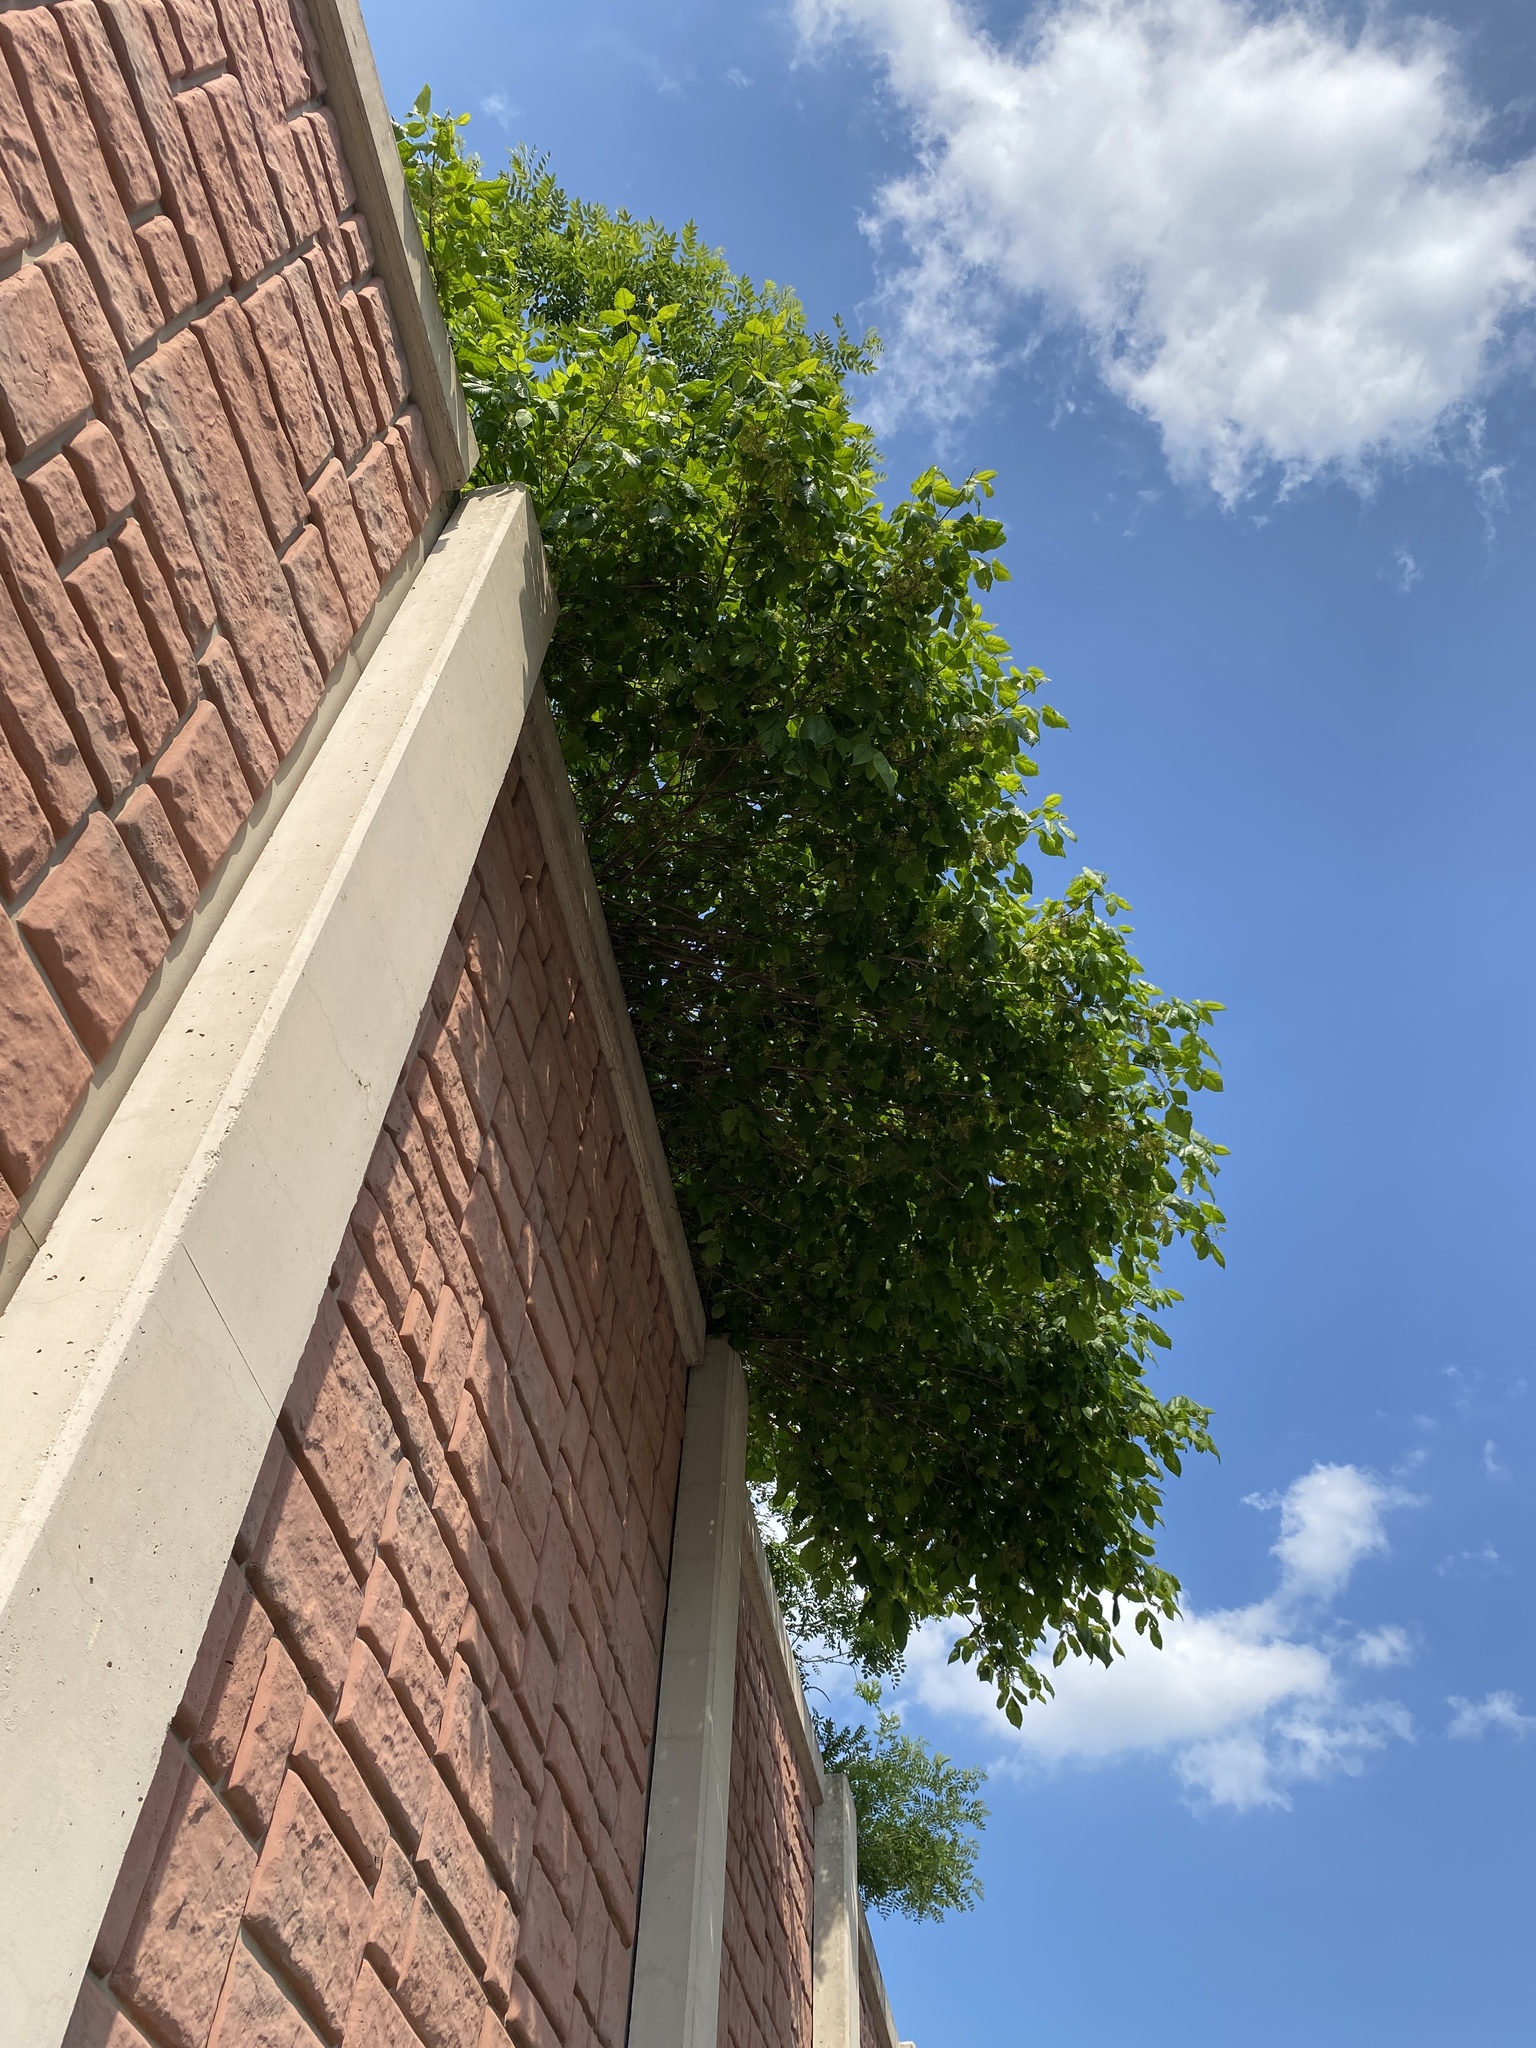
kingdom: Plantae
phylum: Tracheophyta
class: Magnoliopsida
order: Sapindales
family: Anacardiaceae
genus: Toxicodendron
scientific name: Toxicodendron radicans
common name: Poison ivy
